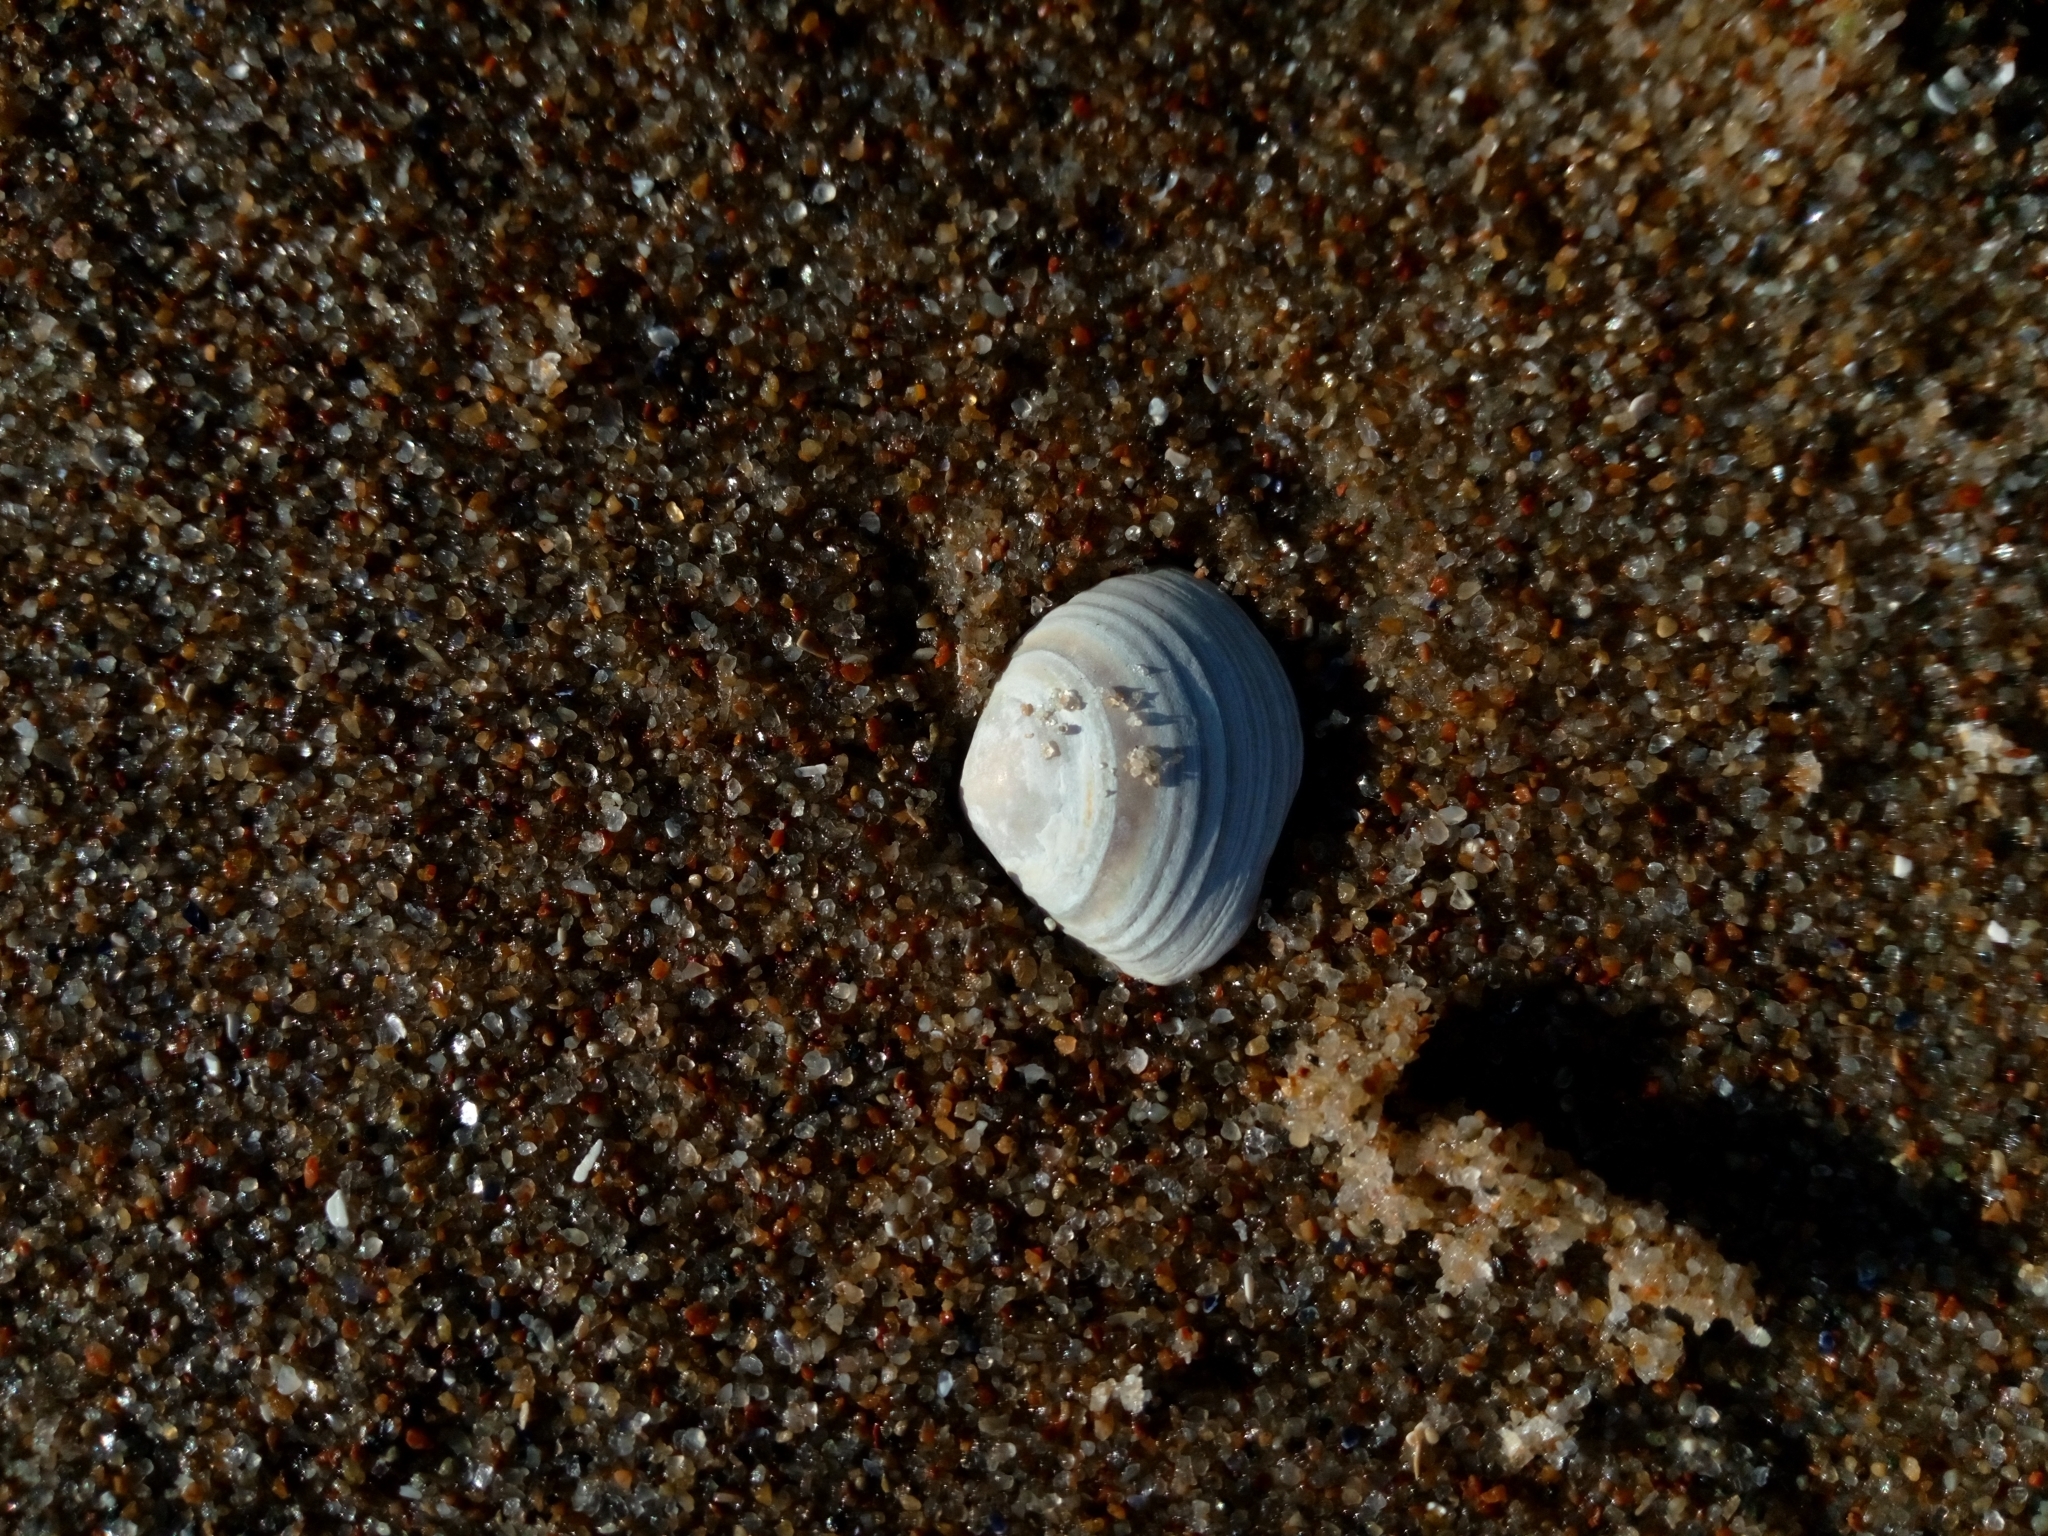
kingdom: Animalia
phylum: Mollusca
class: Bivalvia
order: Cardiida
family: Tellinidae
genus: Macoma
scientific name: Macoma balthica
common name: Baltic tellin
